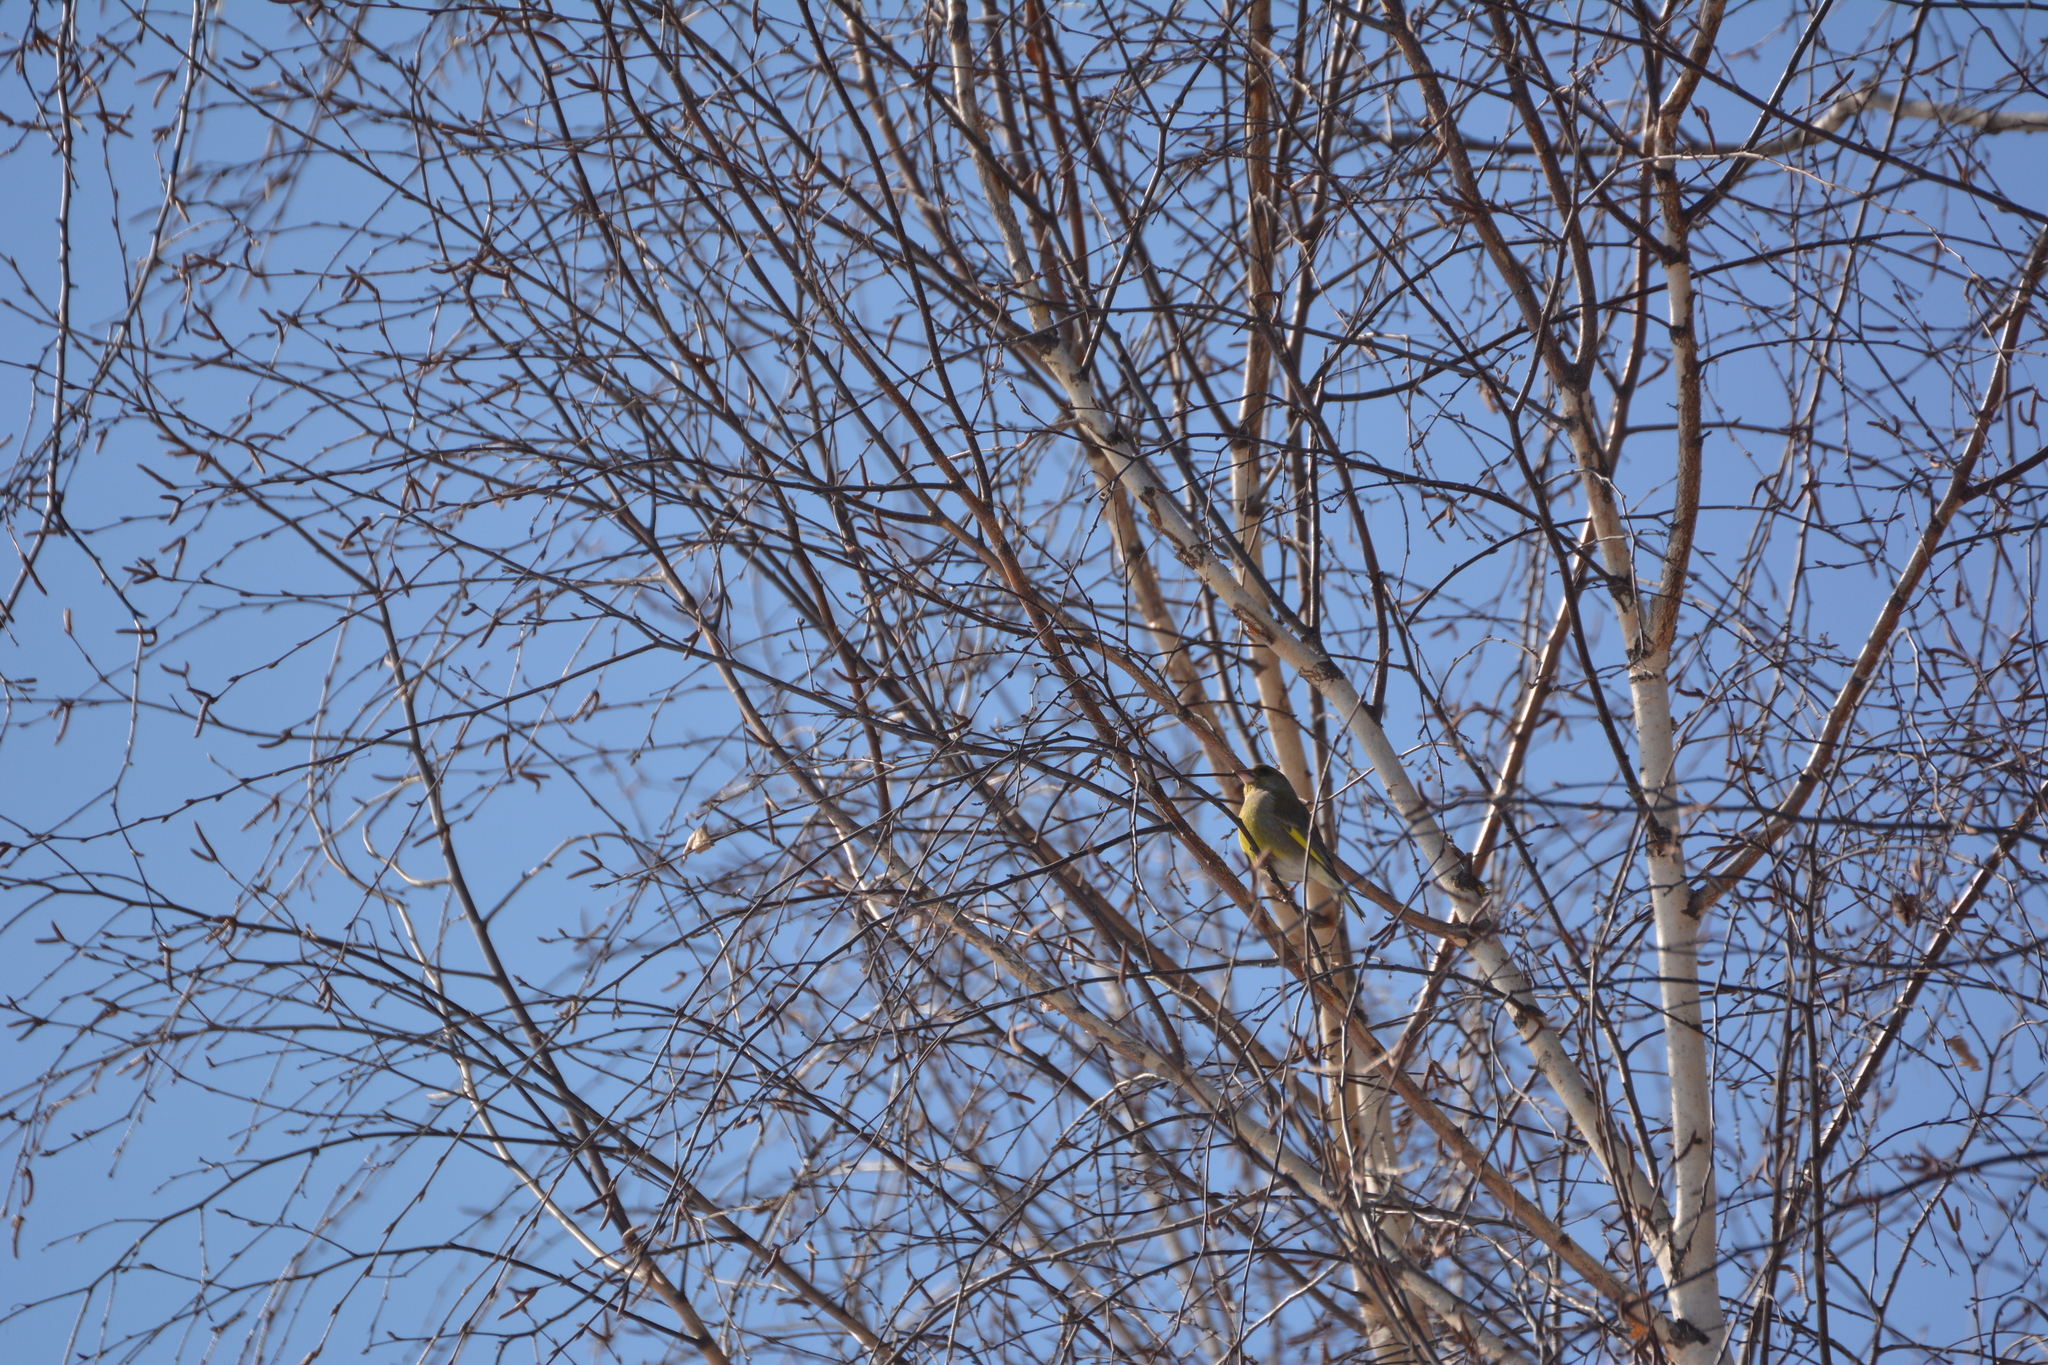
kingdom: Plantae
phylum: Tracheophyta
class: Liliopsida
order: Poales
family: Poaceae
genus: Chloris
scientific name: Chloris chloris
